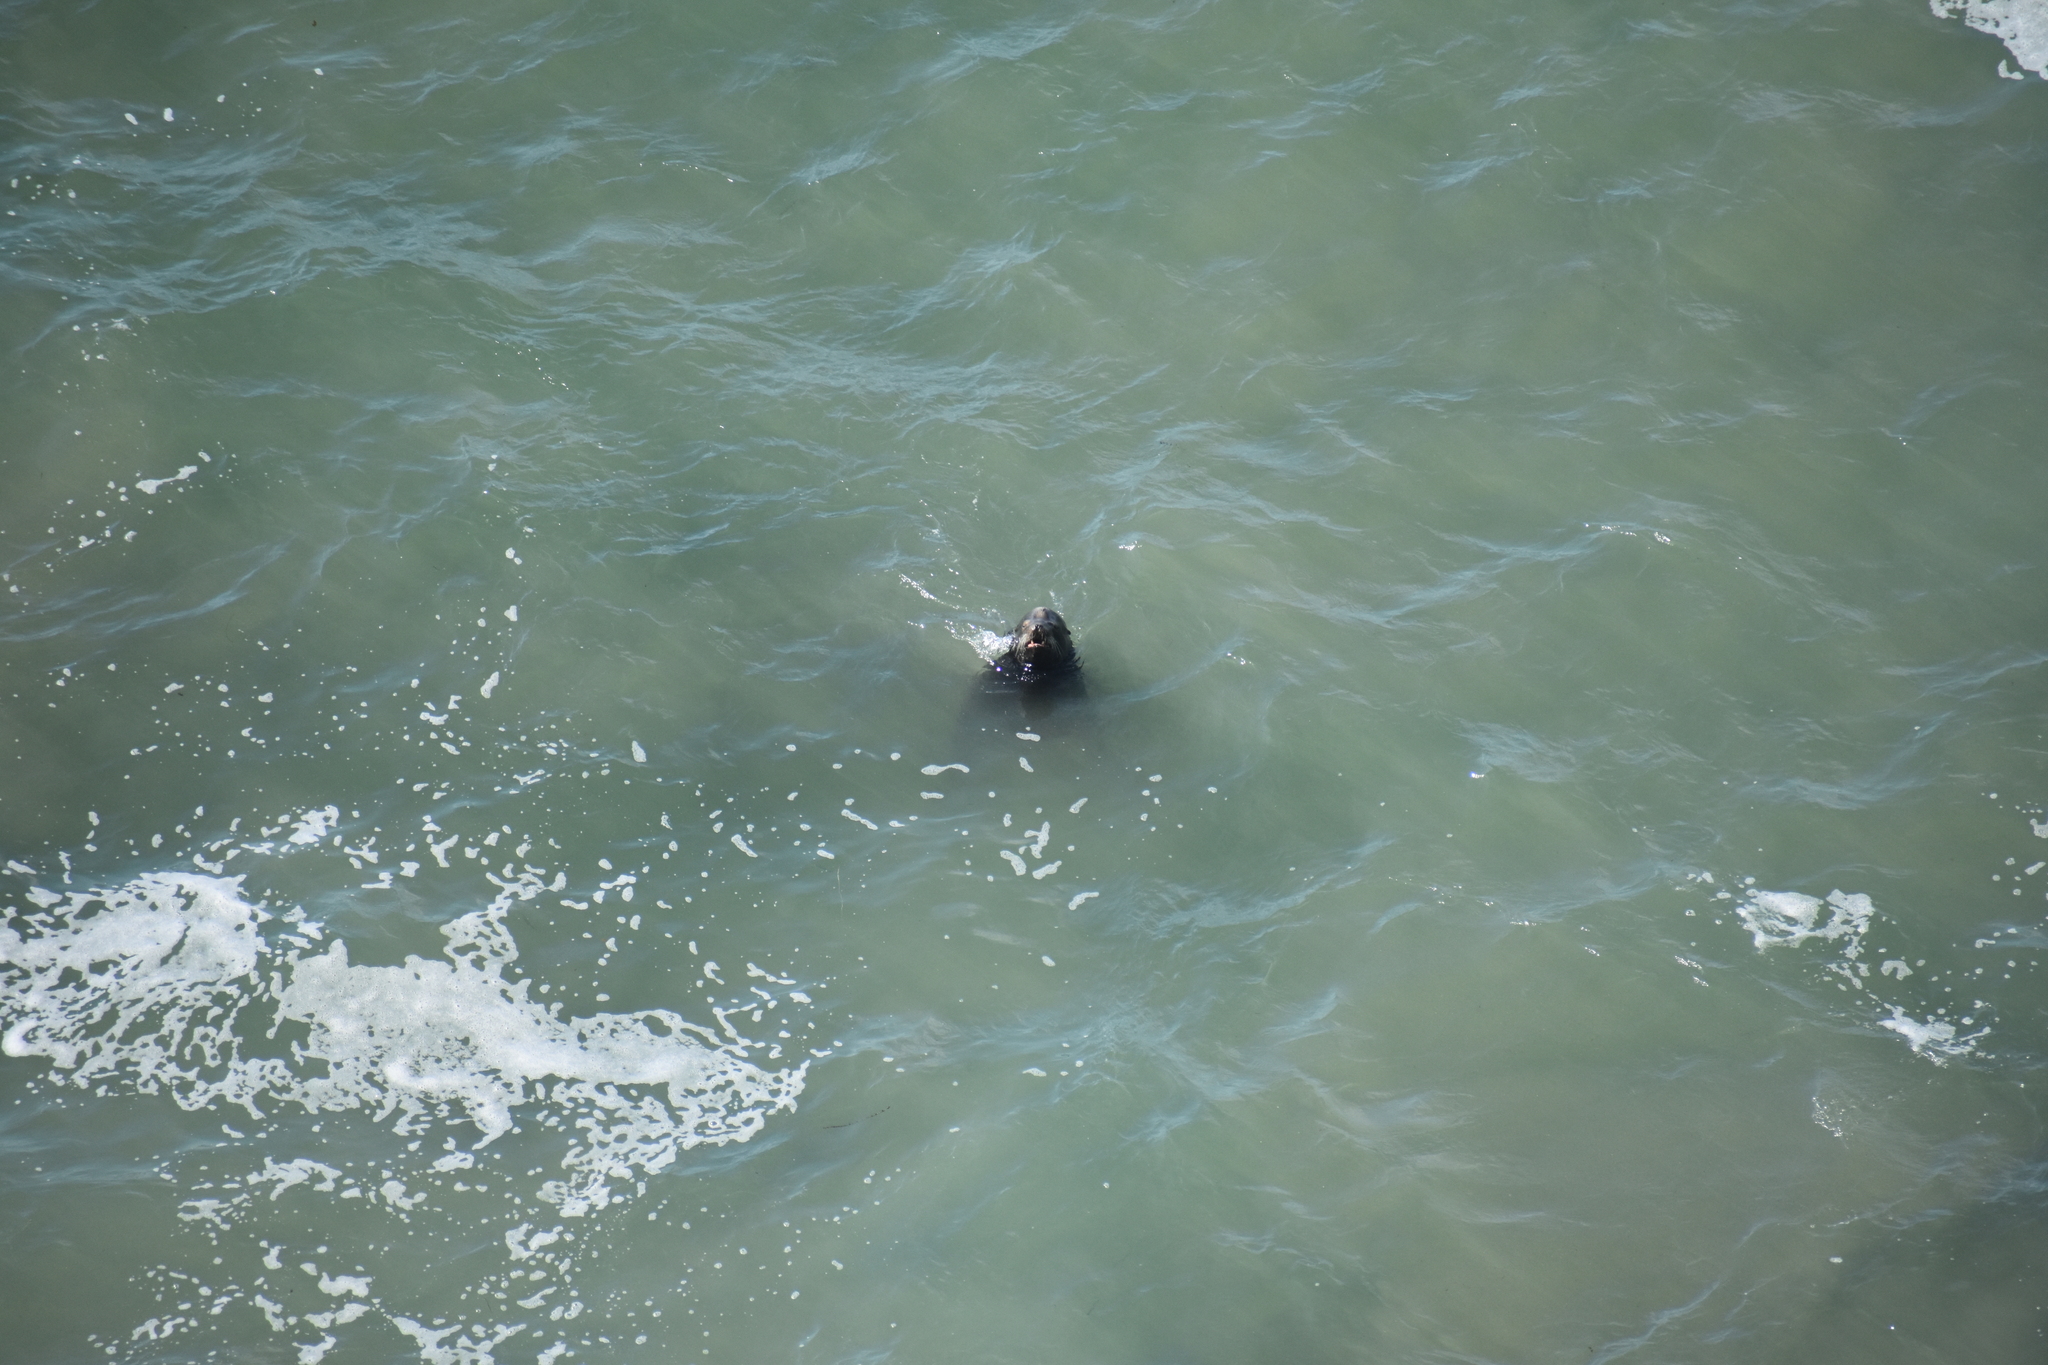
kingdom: Animalia
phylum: Chordata
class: Mammalia
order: Carnivora
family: Otariidae
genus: Zalophus
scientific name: Zalophus californianus
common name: California sea lion
